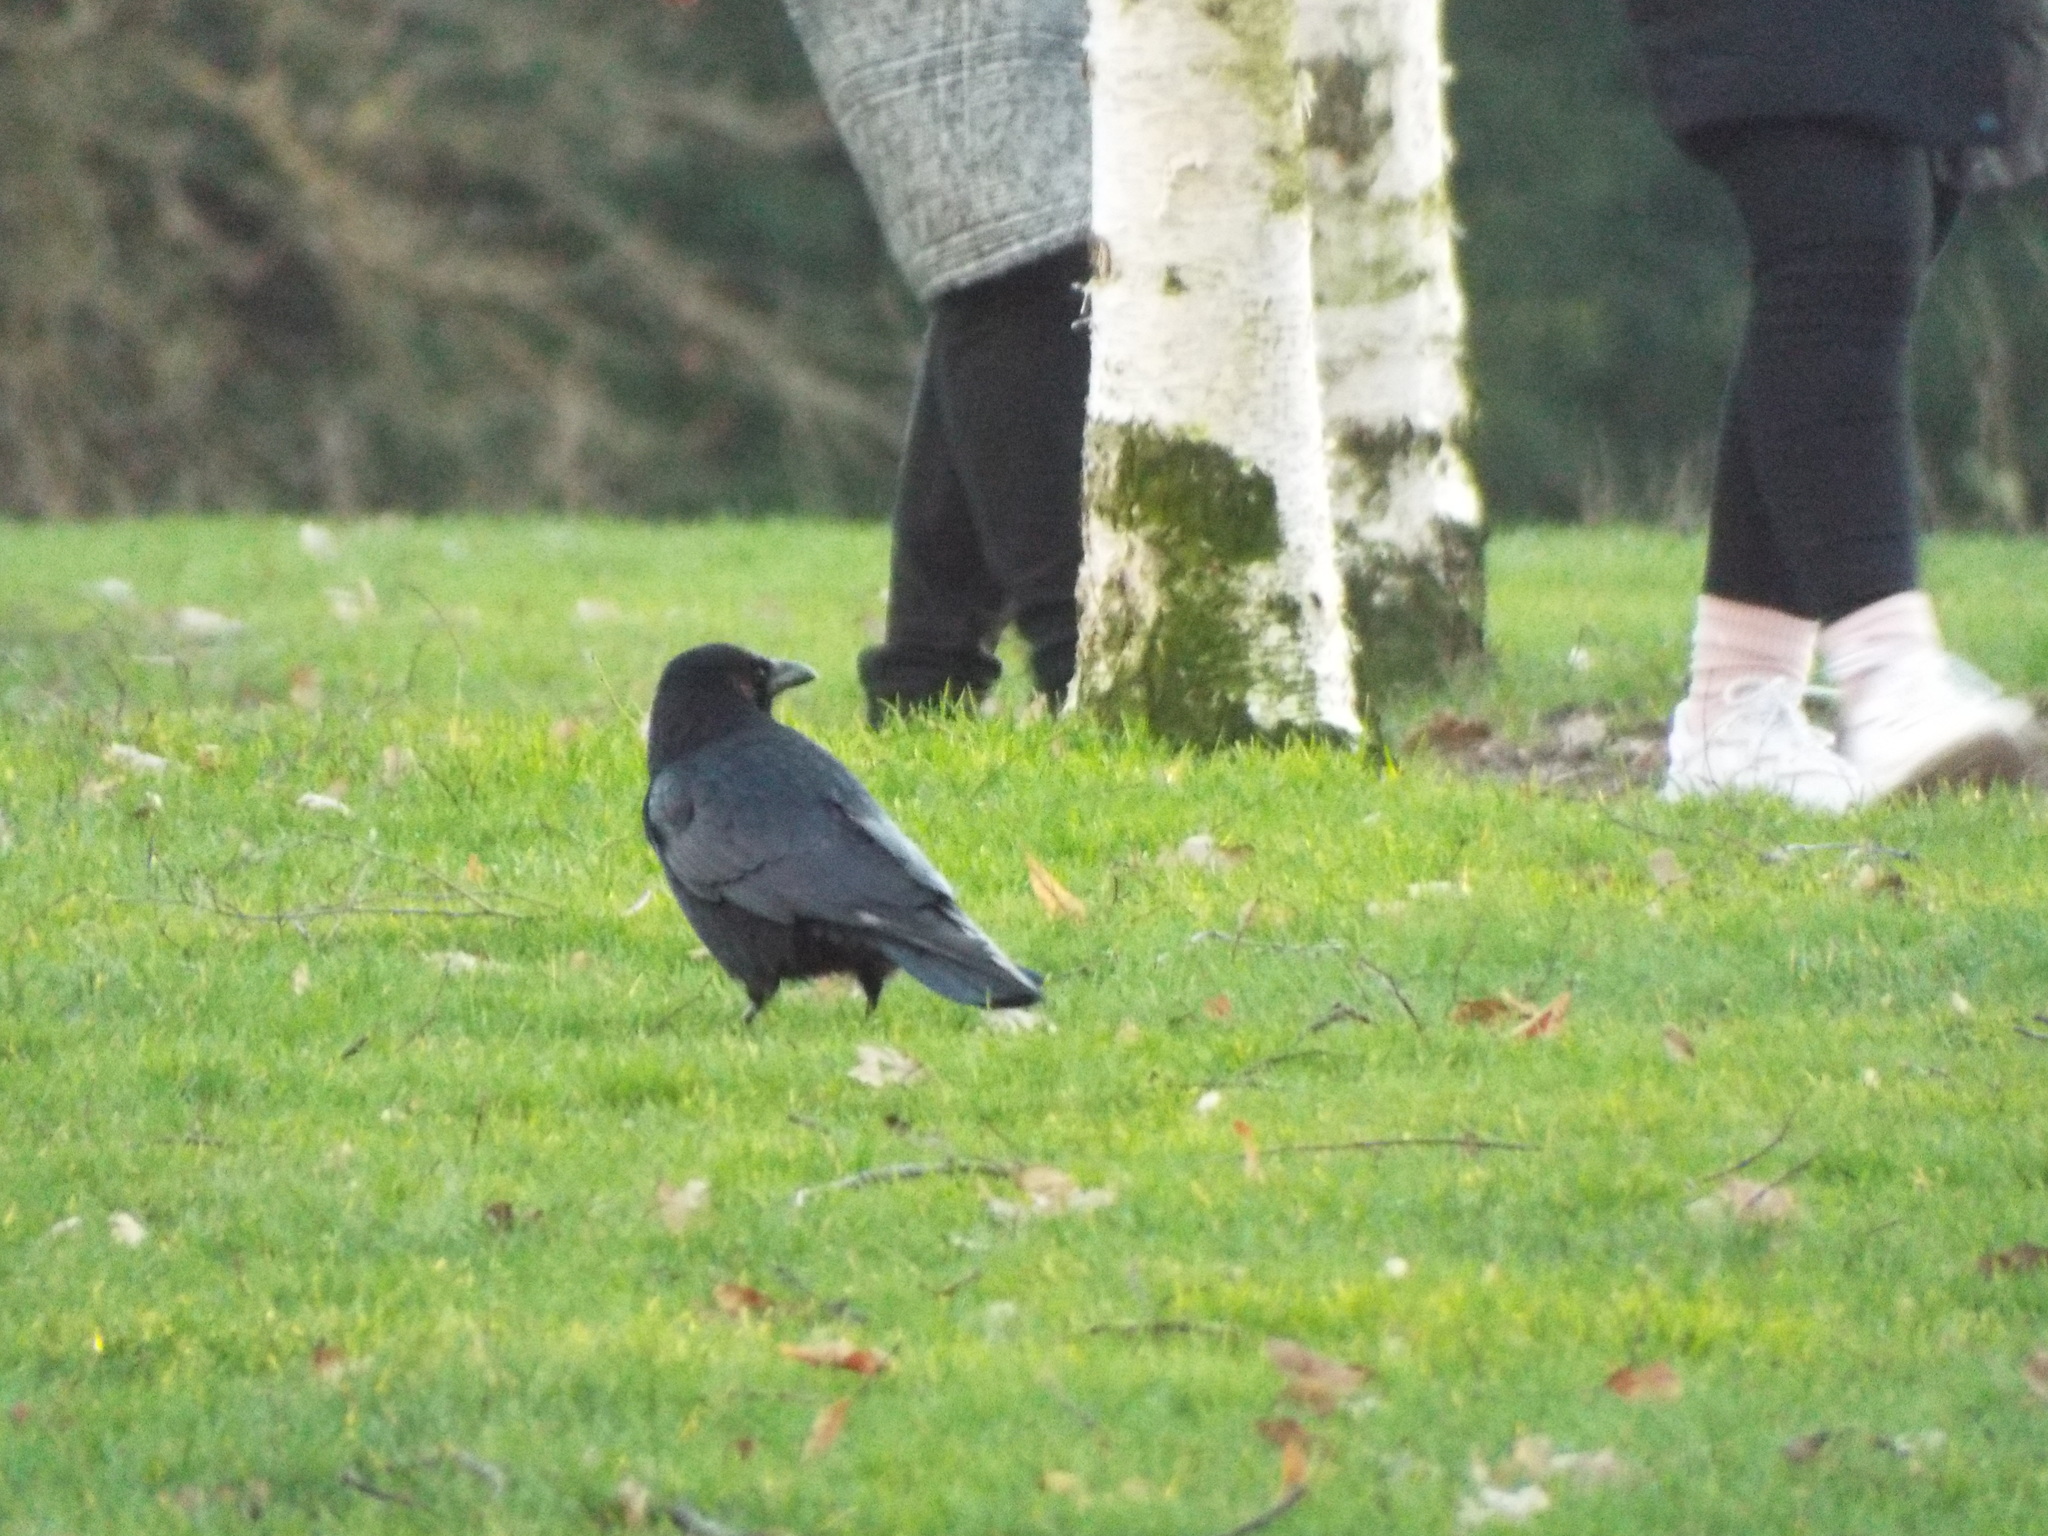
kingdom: Animalia
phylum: Chordata
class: Aves
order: Passeriformes
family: Corvidae
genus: Corvus
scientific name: Corvus corone
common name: Carrion crow
